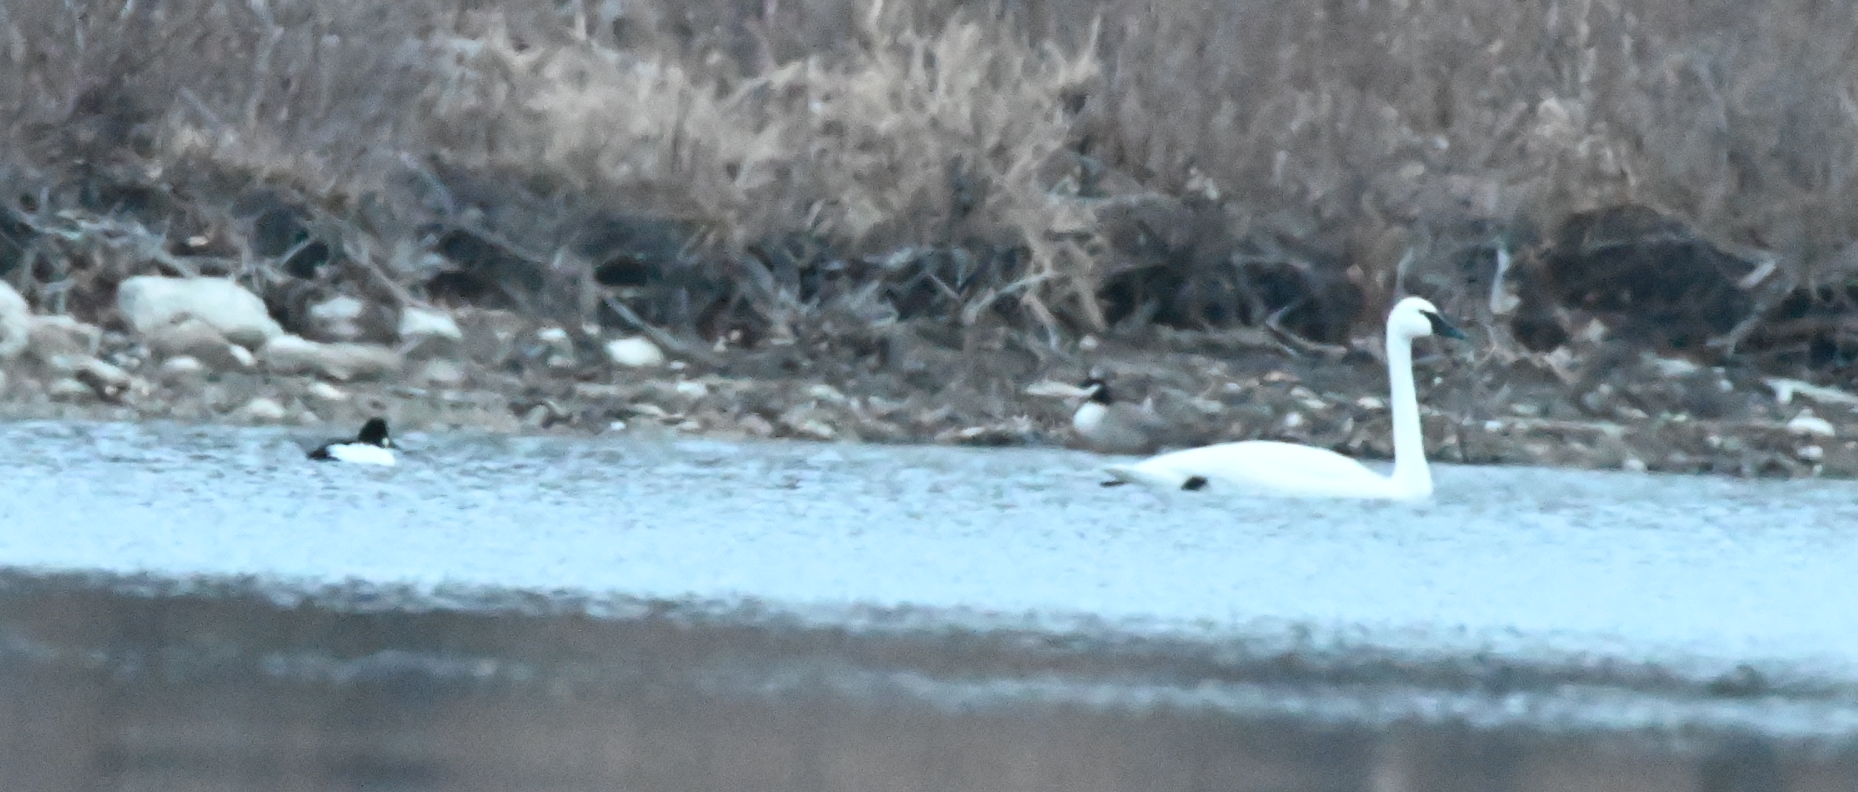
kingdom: Animalia
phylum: Chordata
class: Aves
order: Anseriformes
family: Anatidae
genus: Cygnus
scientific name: Cygnus buccinator
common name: Trumpeter swan
